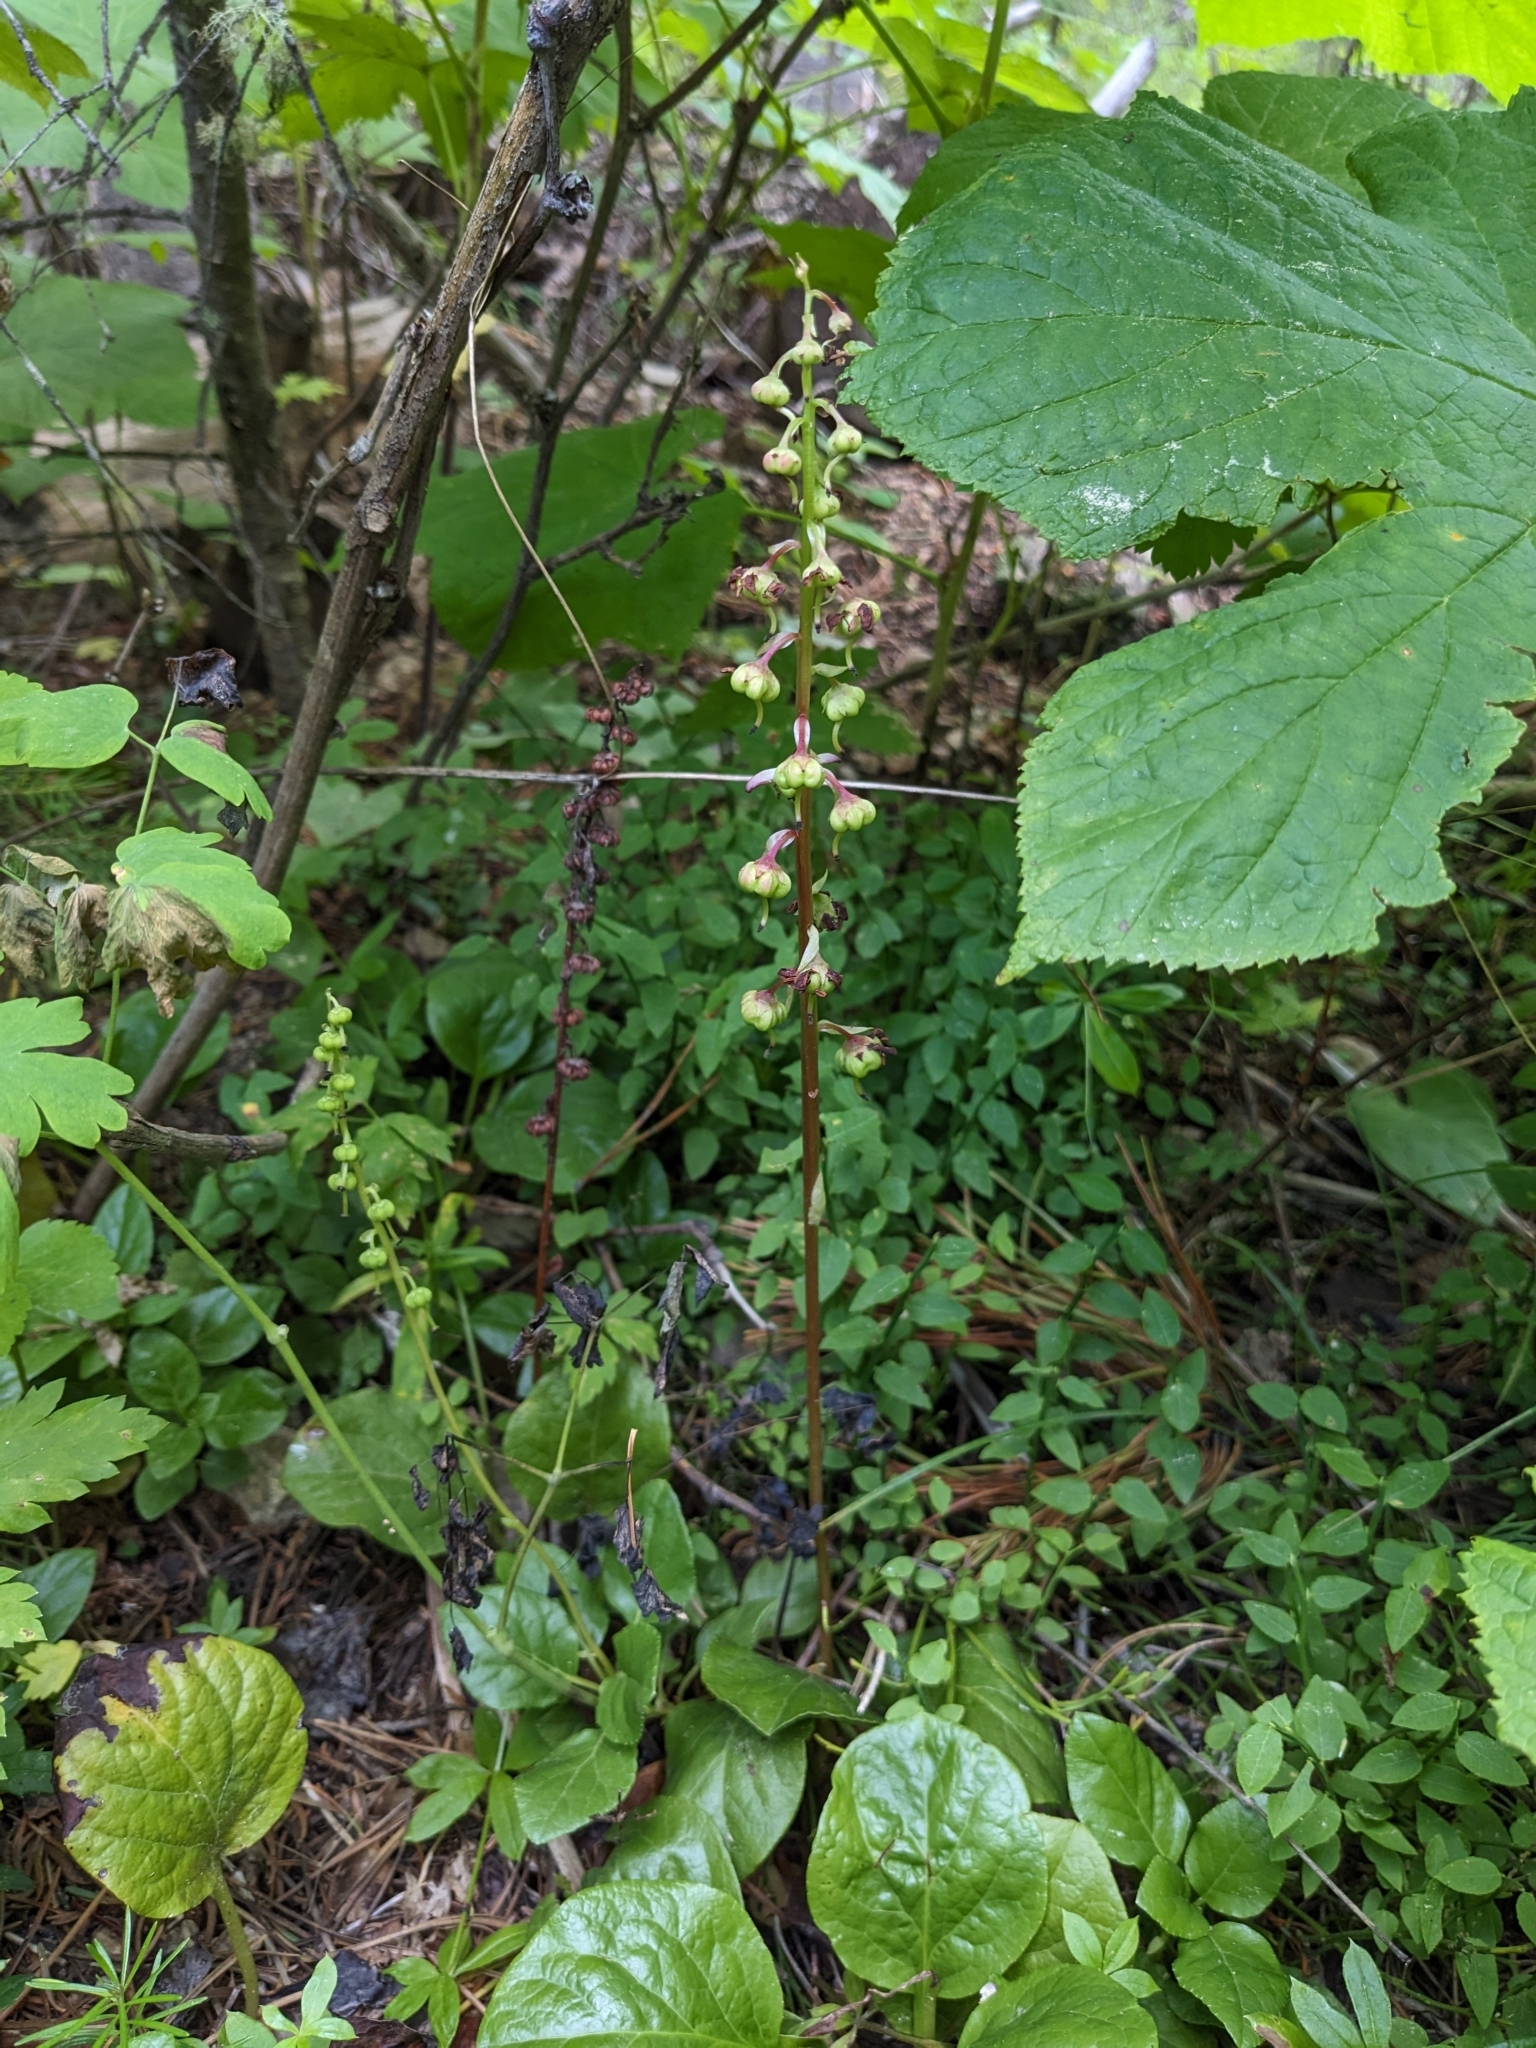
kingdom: Plantae
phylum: Tracheophyta
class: Magnoliopsida
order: Ericales
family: Ericaceae
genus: Pyrola
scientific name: Pyrola asarifolia
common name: Bog wintergreen
